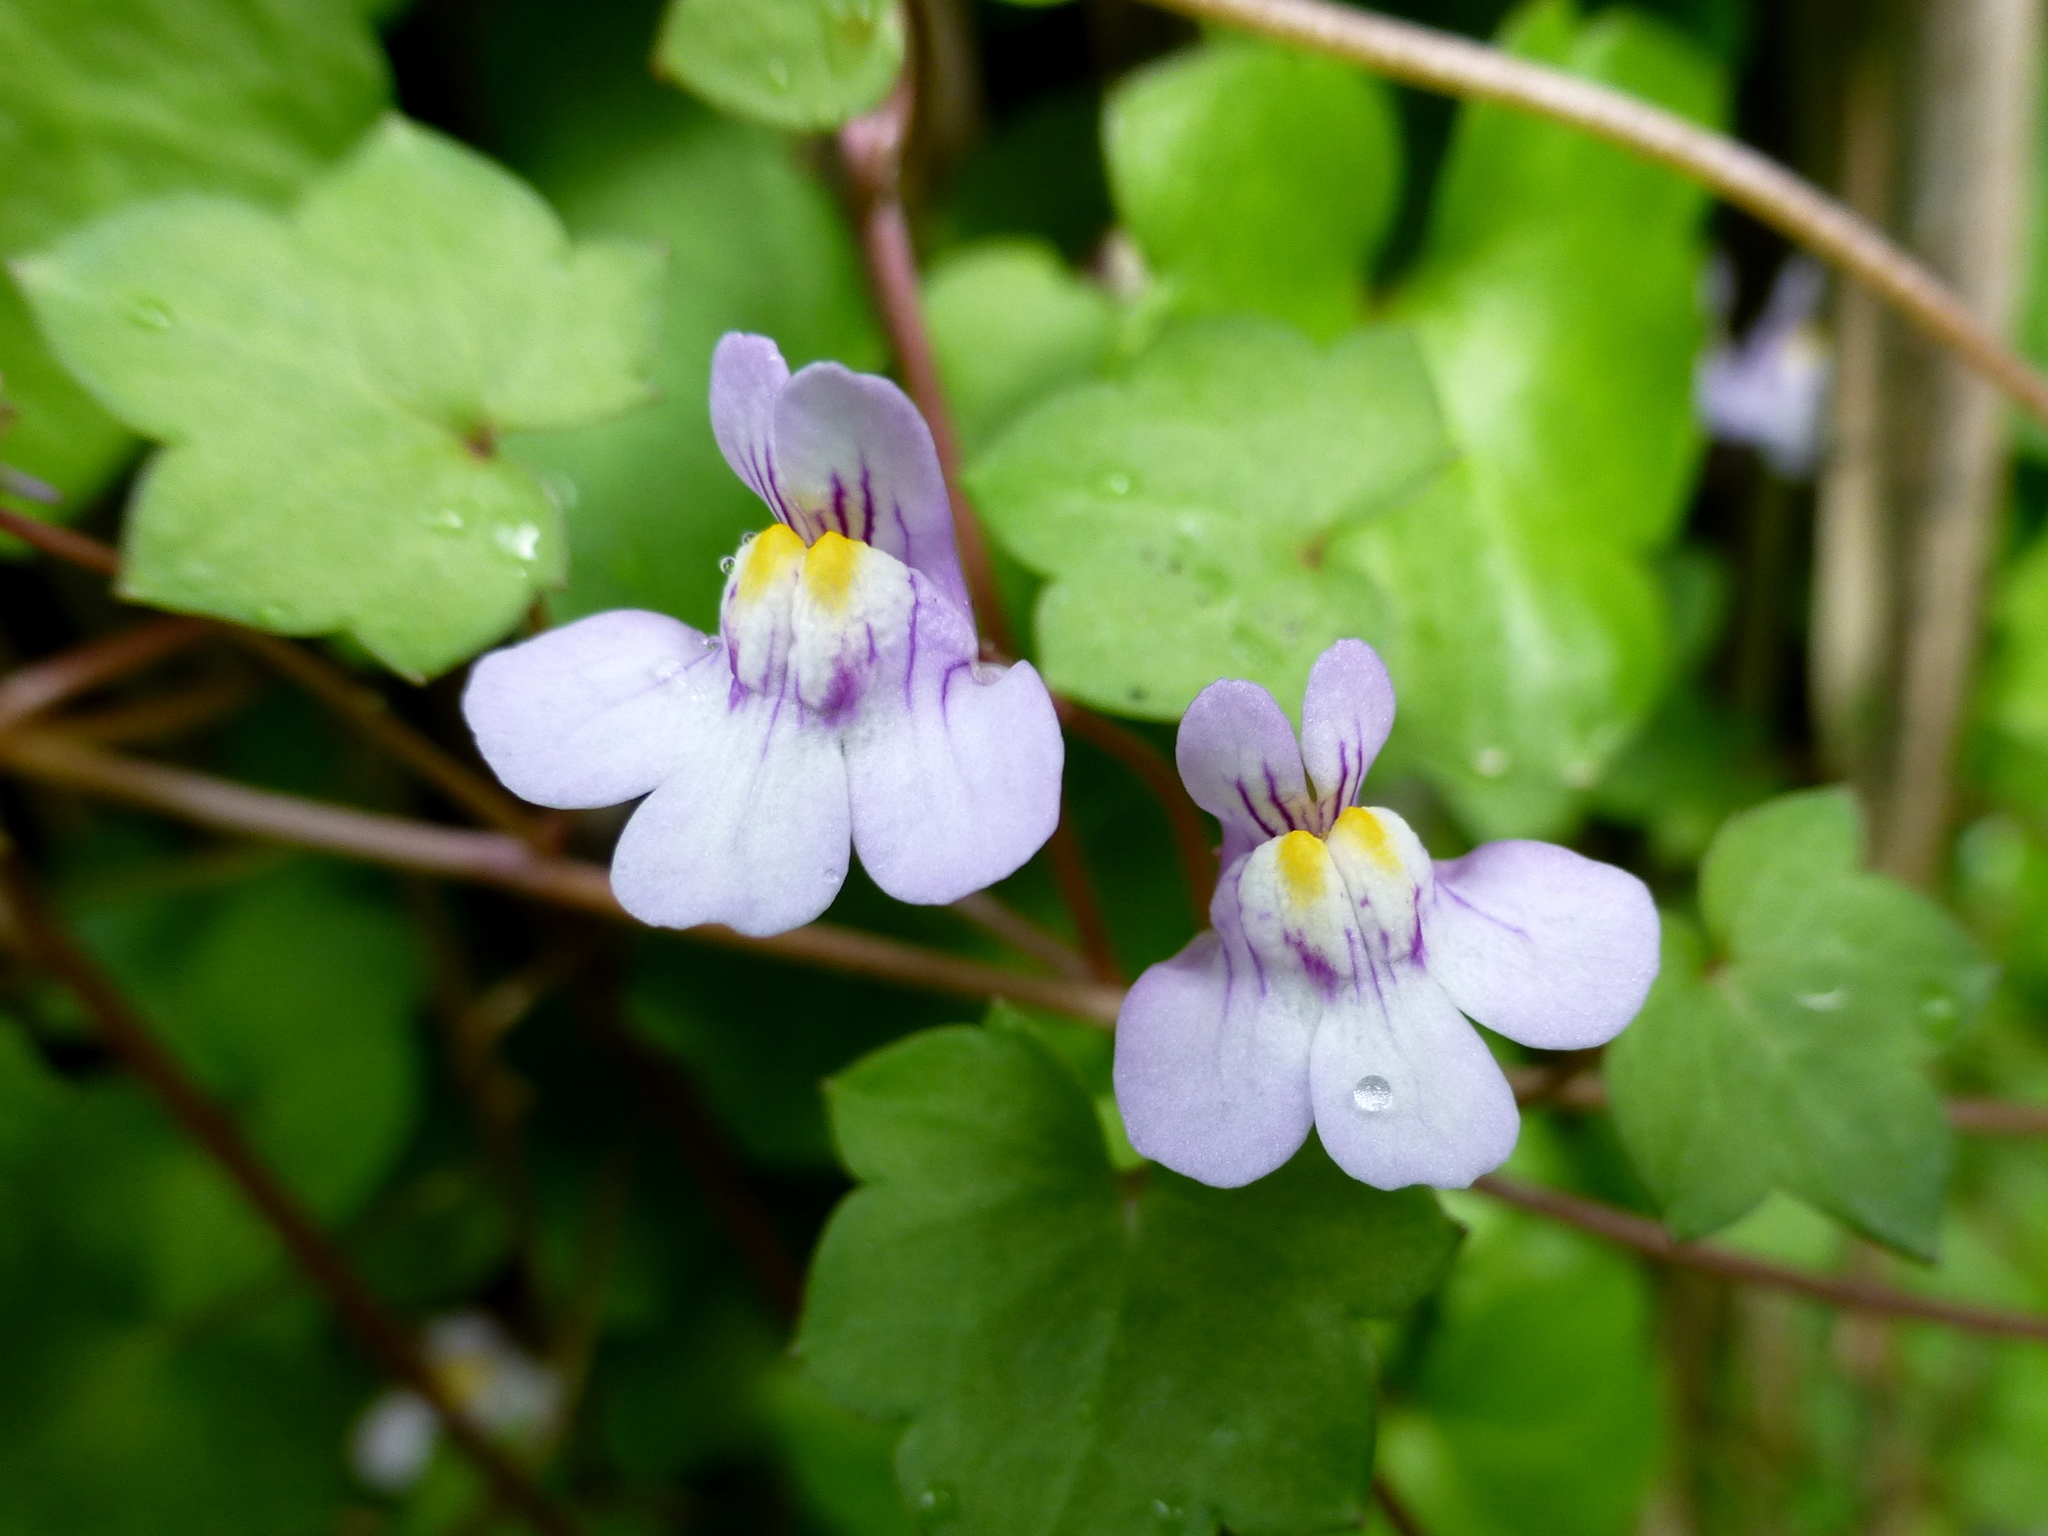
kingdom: Plantae
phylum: Tracheophyta
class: Magnoliopsida
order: Lamiales
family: Plantaginaceae
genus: Cymbalaria
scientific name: Cymbalaria muralis
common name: Ivy-leaved toadflax
